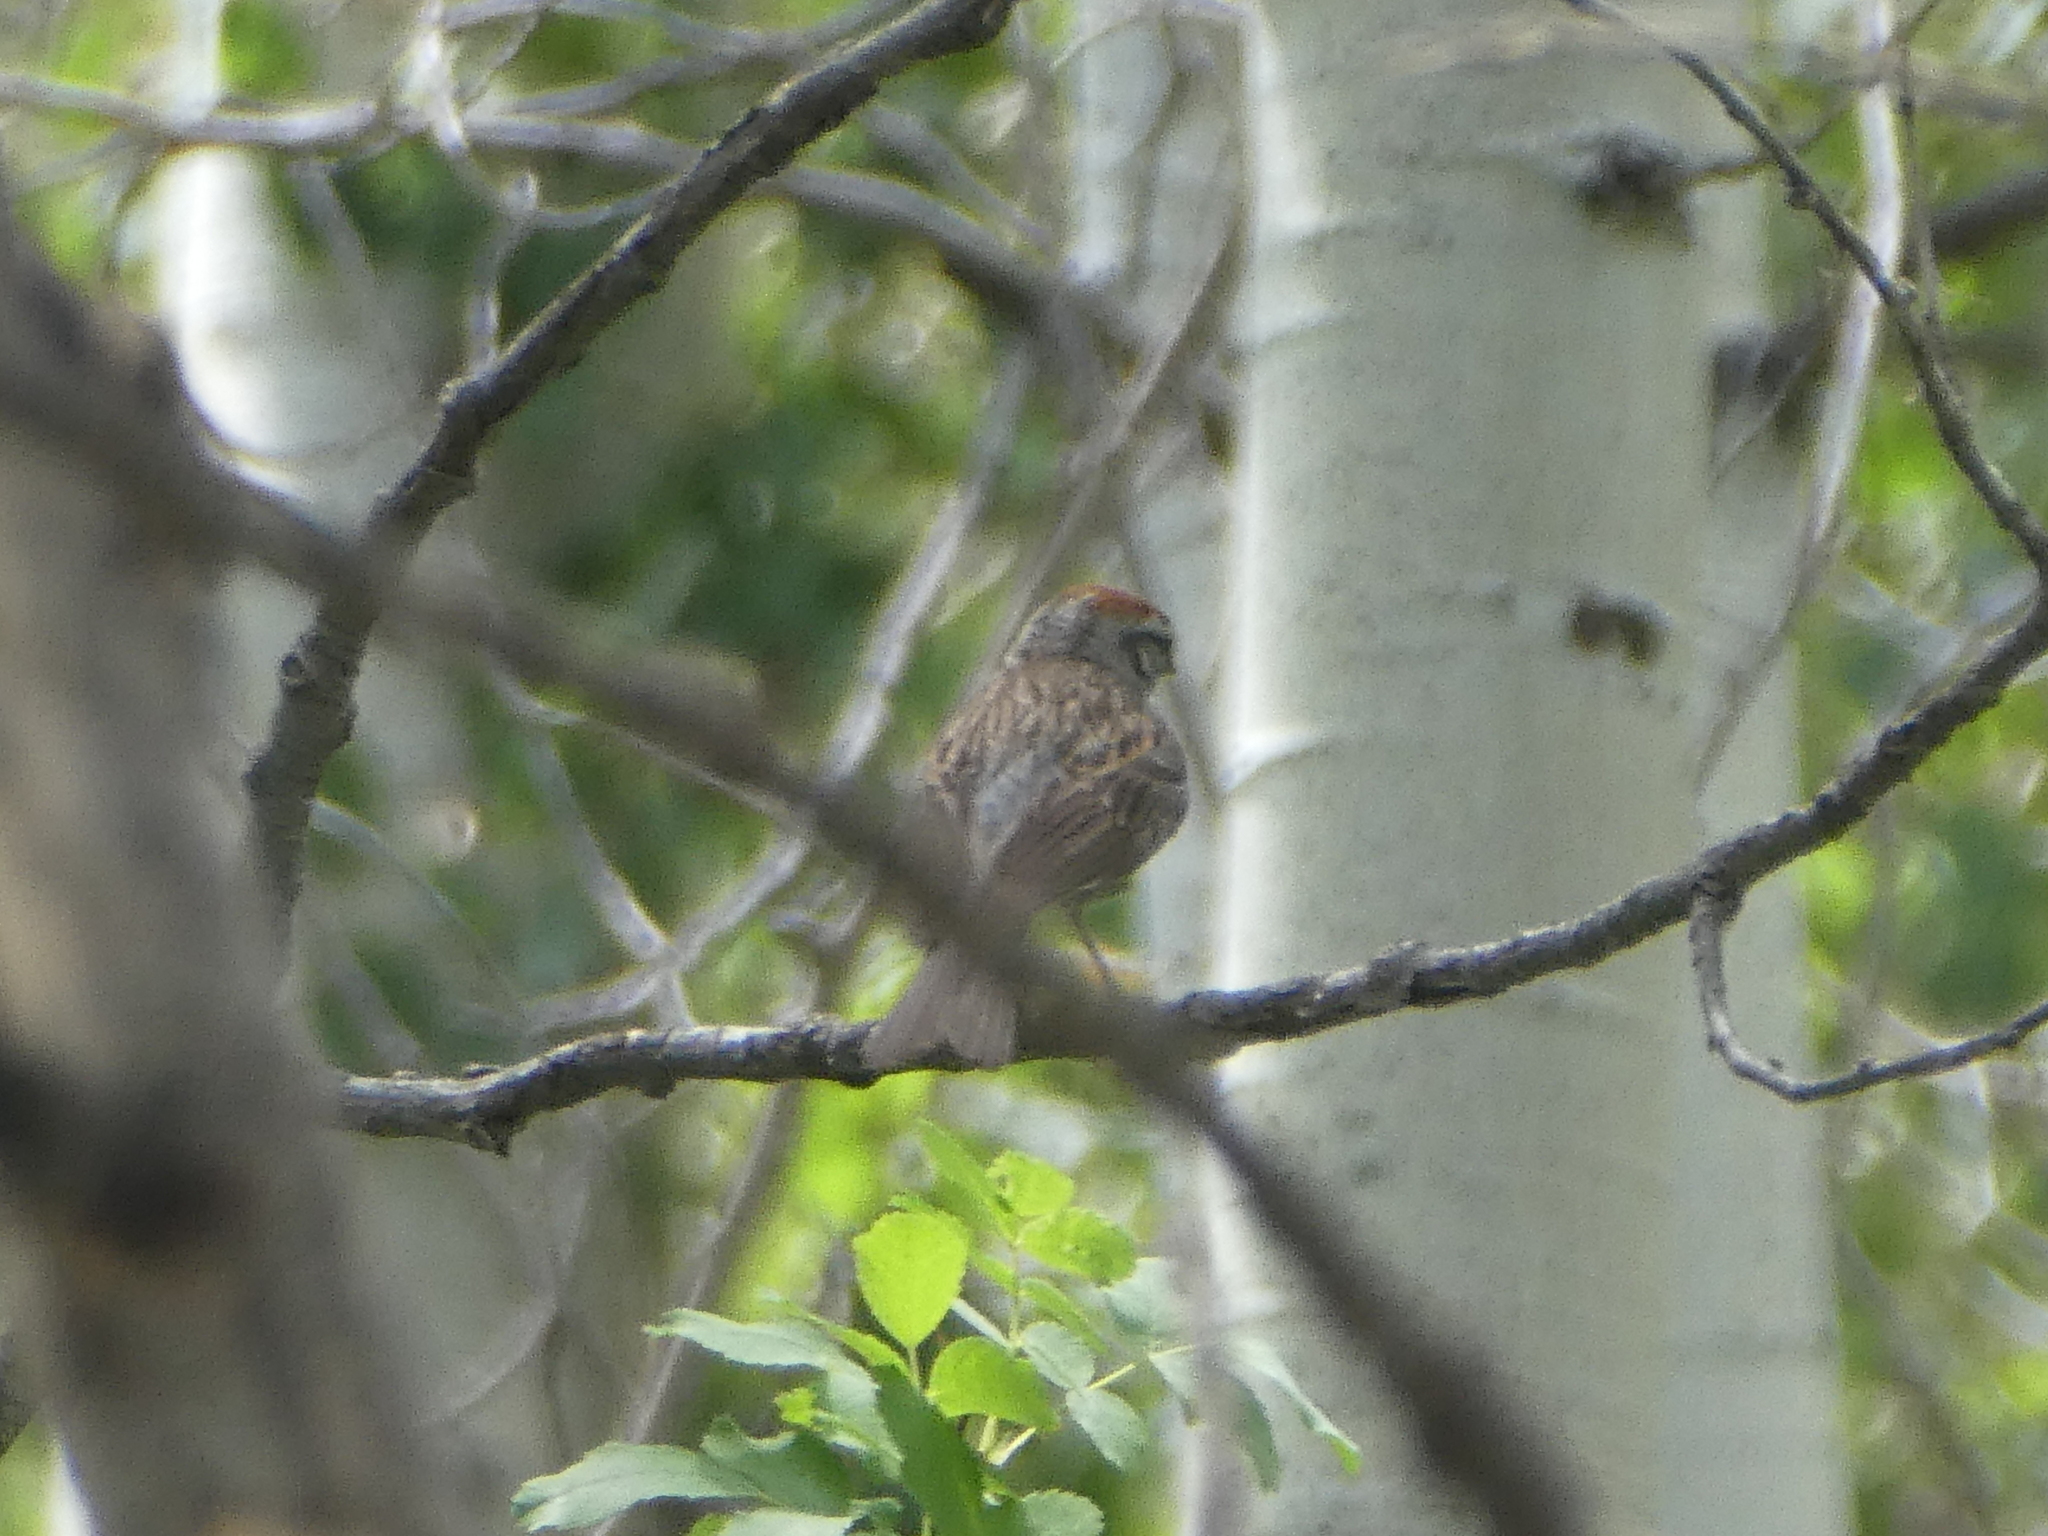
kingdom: Animalia
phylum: Chordata
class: Aves
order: Passeriformes
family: Passerellidae
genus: Spizella
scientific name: Spizella passerina
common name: Chipping sparrow
